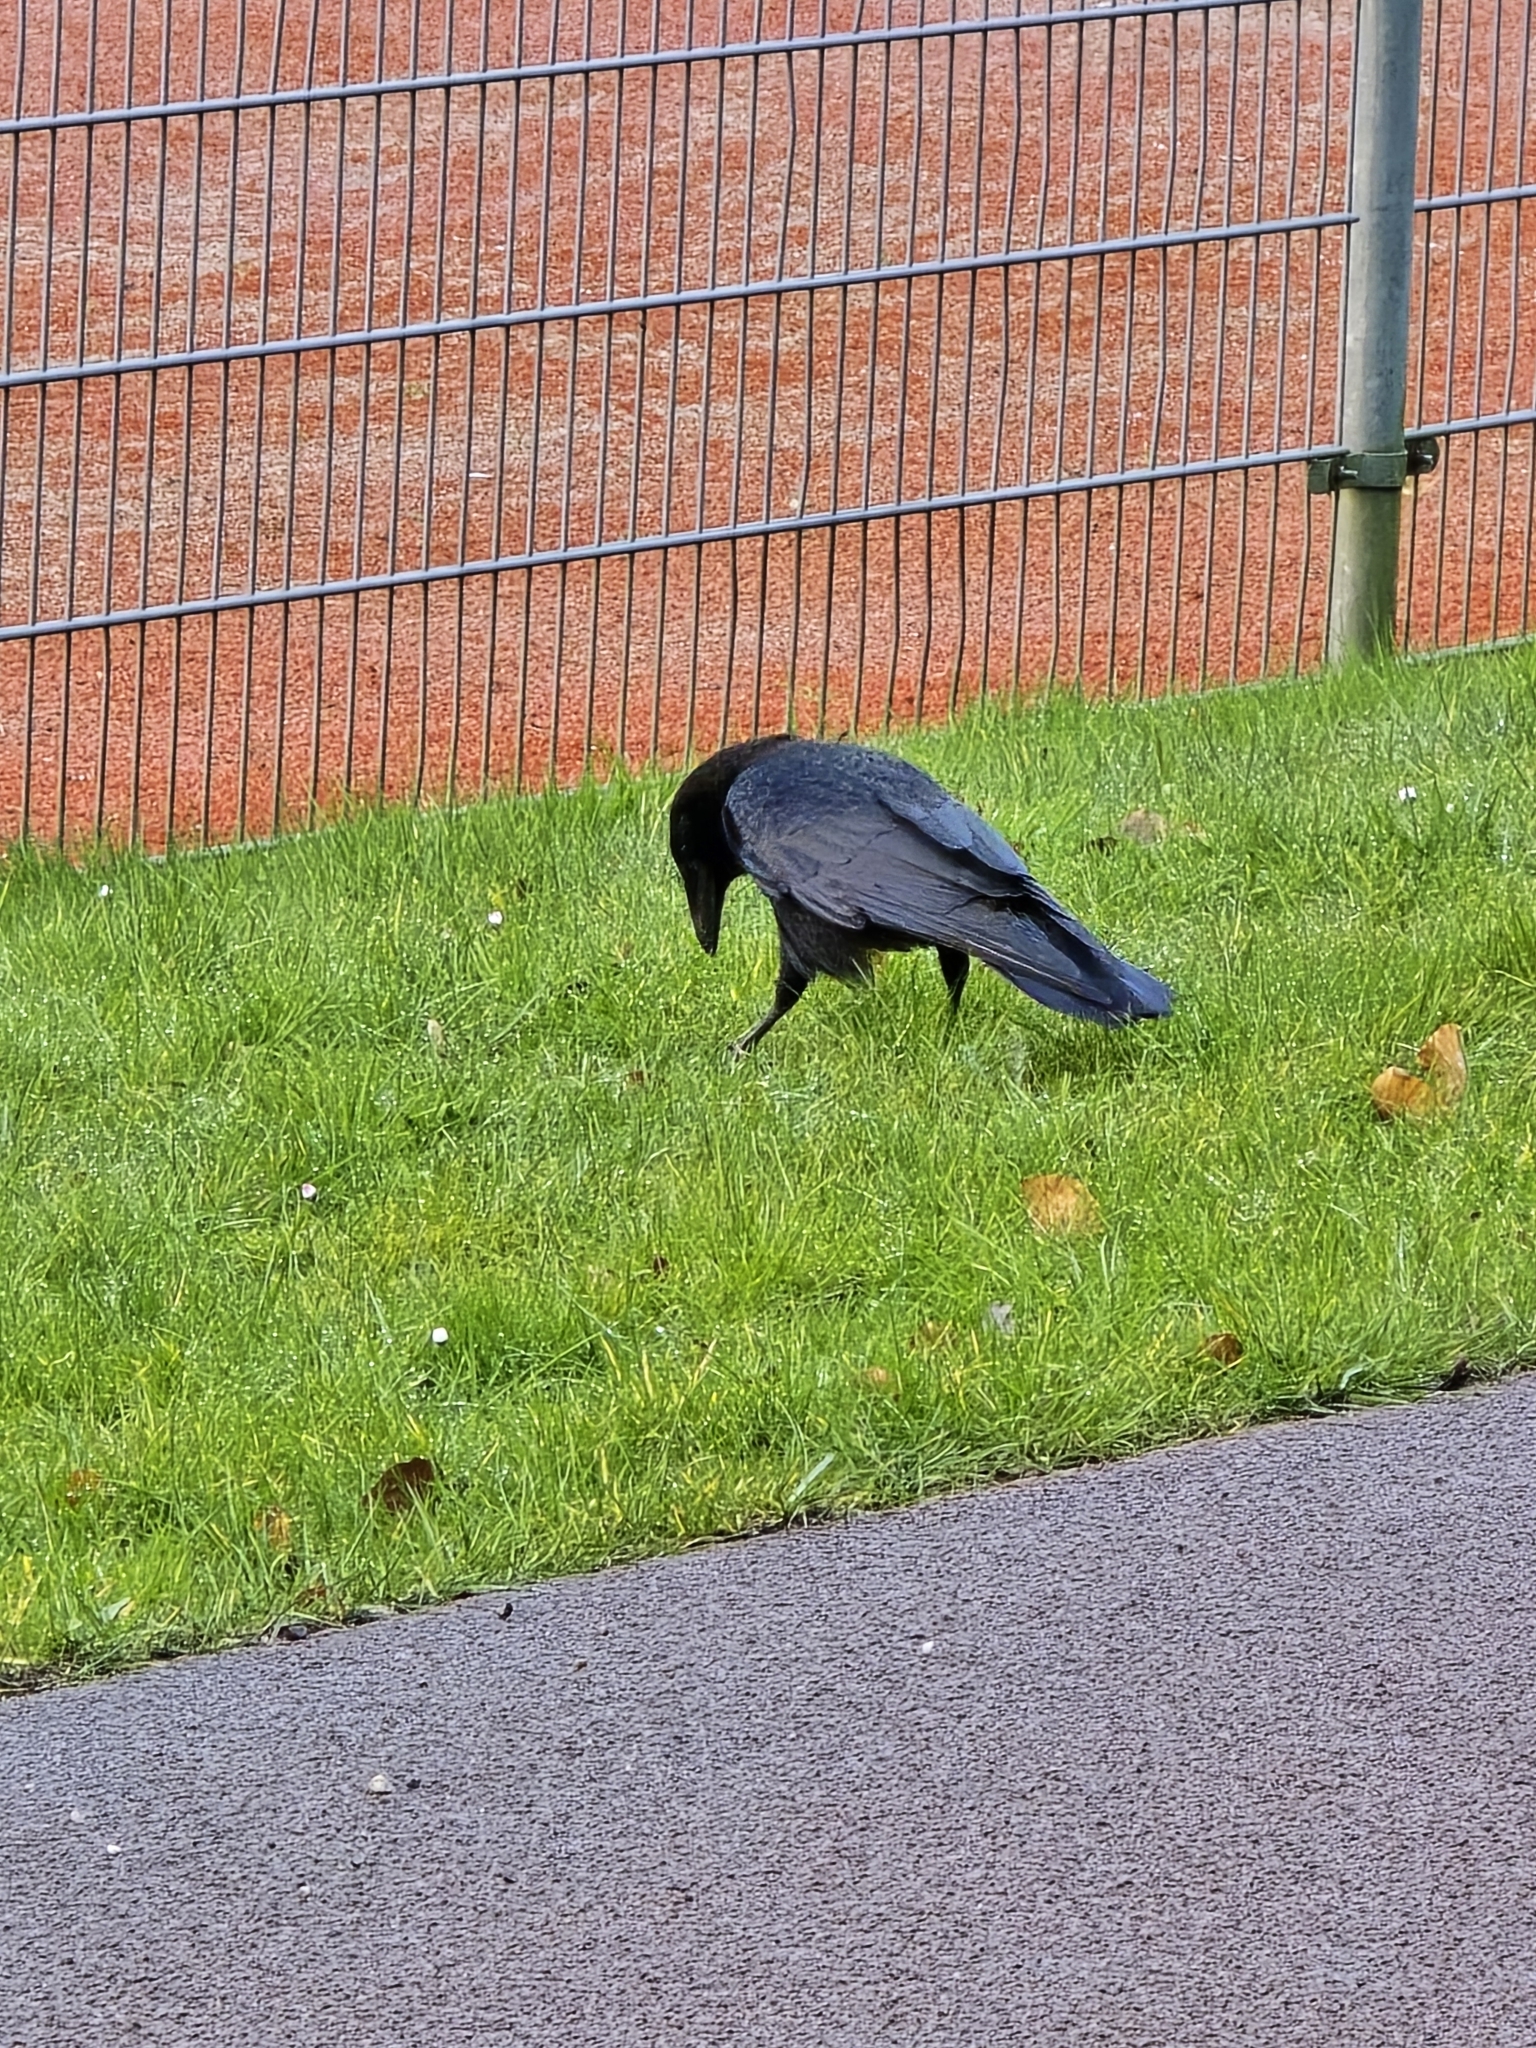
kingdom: Animalia
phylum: Chordata
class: Aves
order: Passeriformes
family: Corvidae
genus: Corvus
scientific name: Corvus corone
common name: Carrion crow
